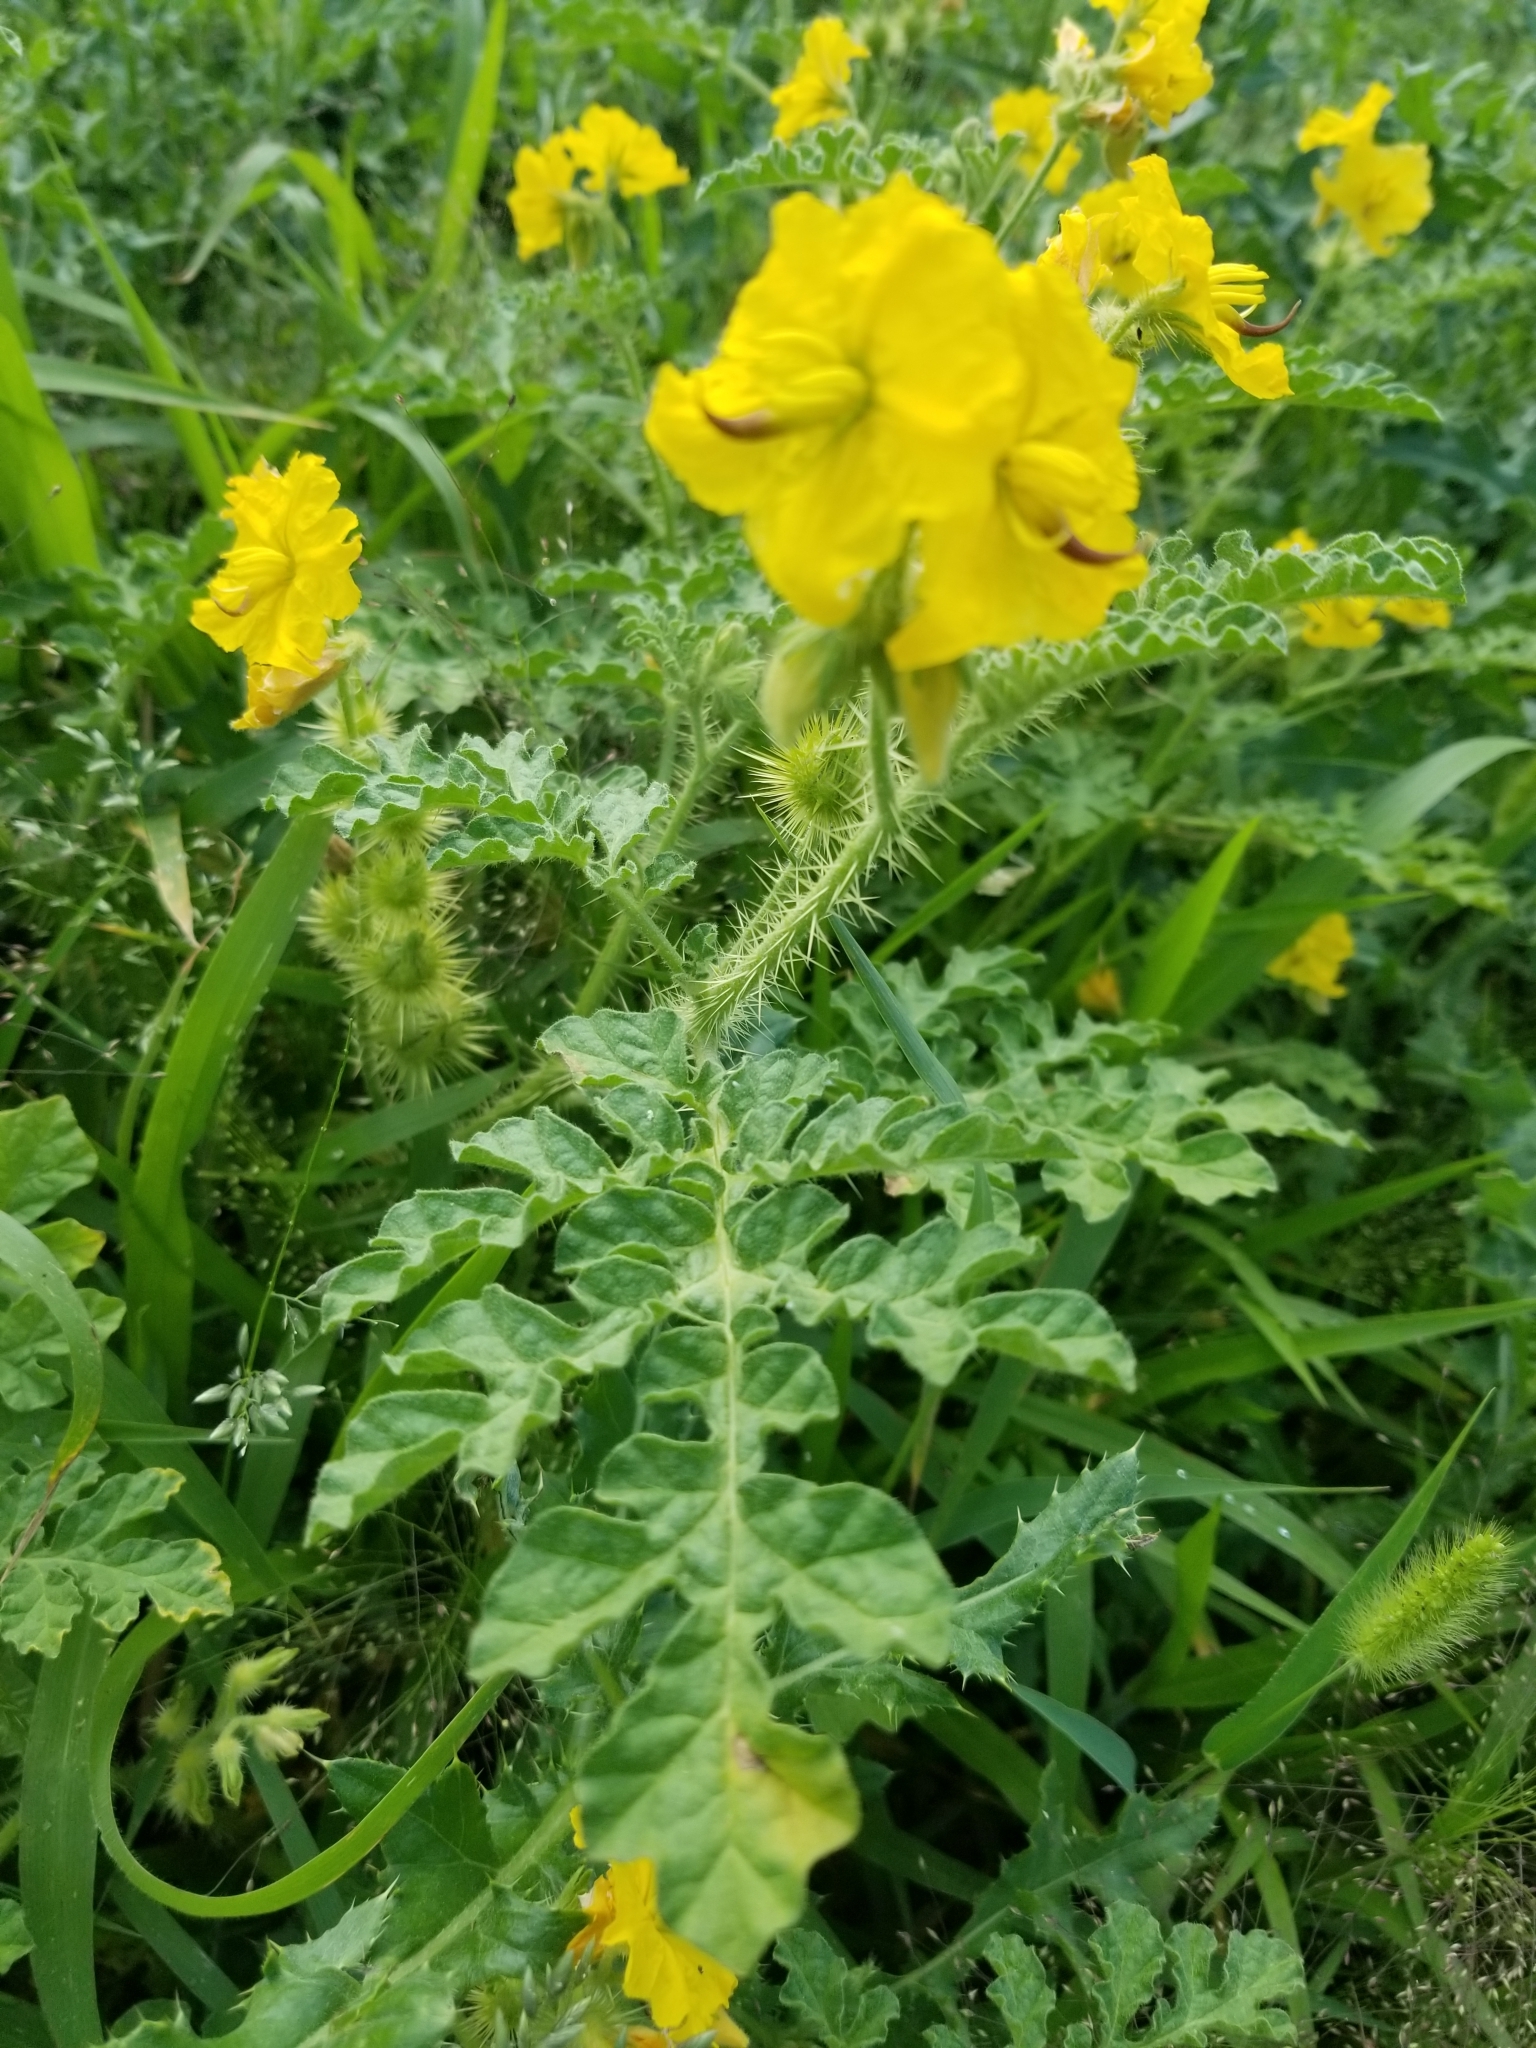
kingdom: Plantae
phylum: Tracheophyta
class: Magnoliopsida
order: Solanales
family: Solanaceae
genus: Solanum
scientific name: Solanum angustifolium
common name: Buffalobur nightshade
